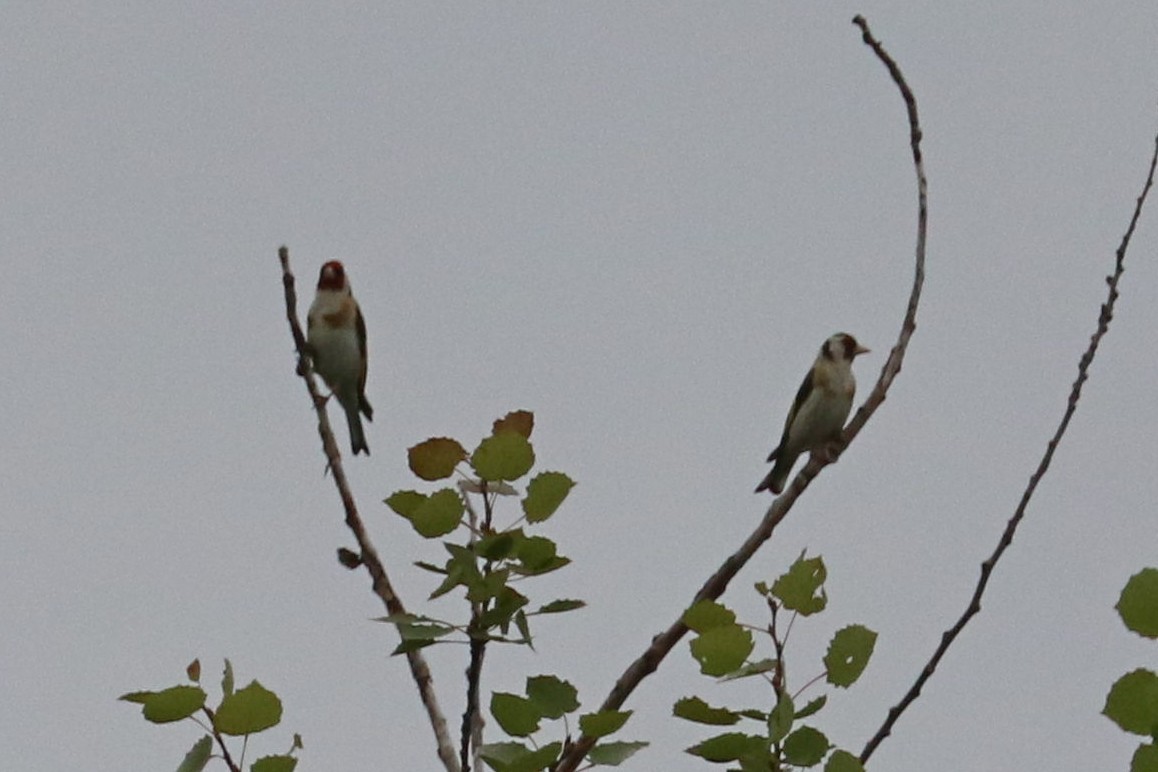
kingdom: Animalia
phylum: Chordata
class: Aves
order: Passeriformes
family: Fringillidae
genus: Carduelis
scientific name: Carduelis carduelis
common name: European goldfinch
